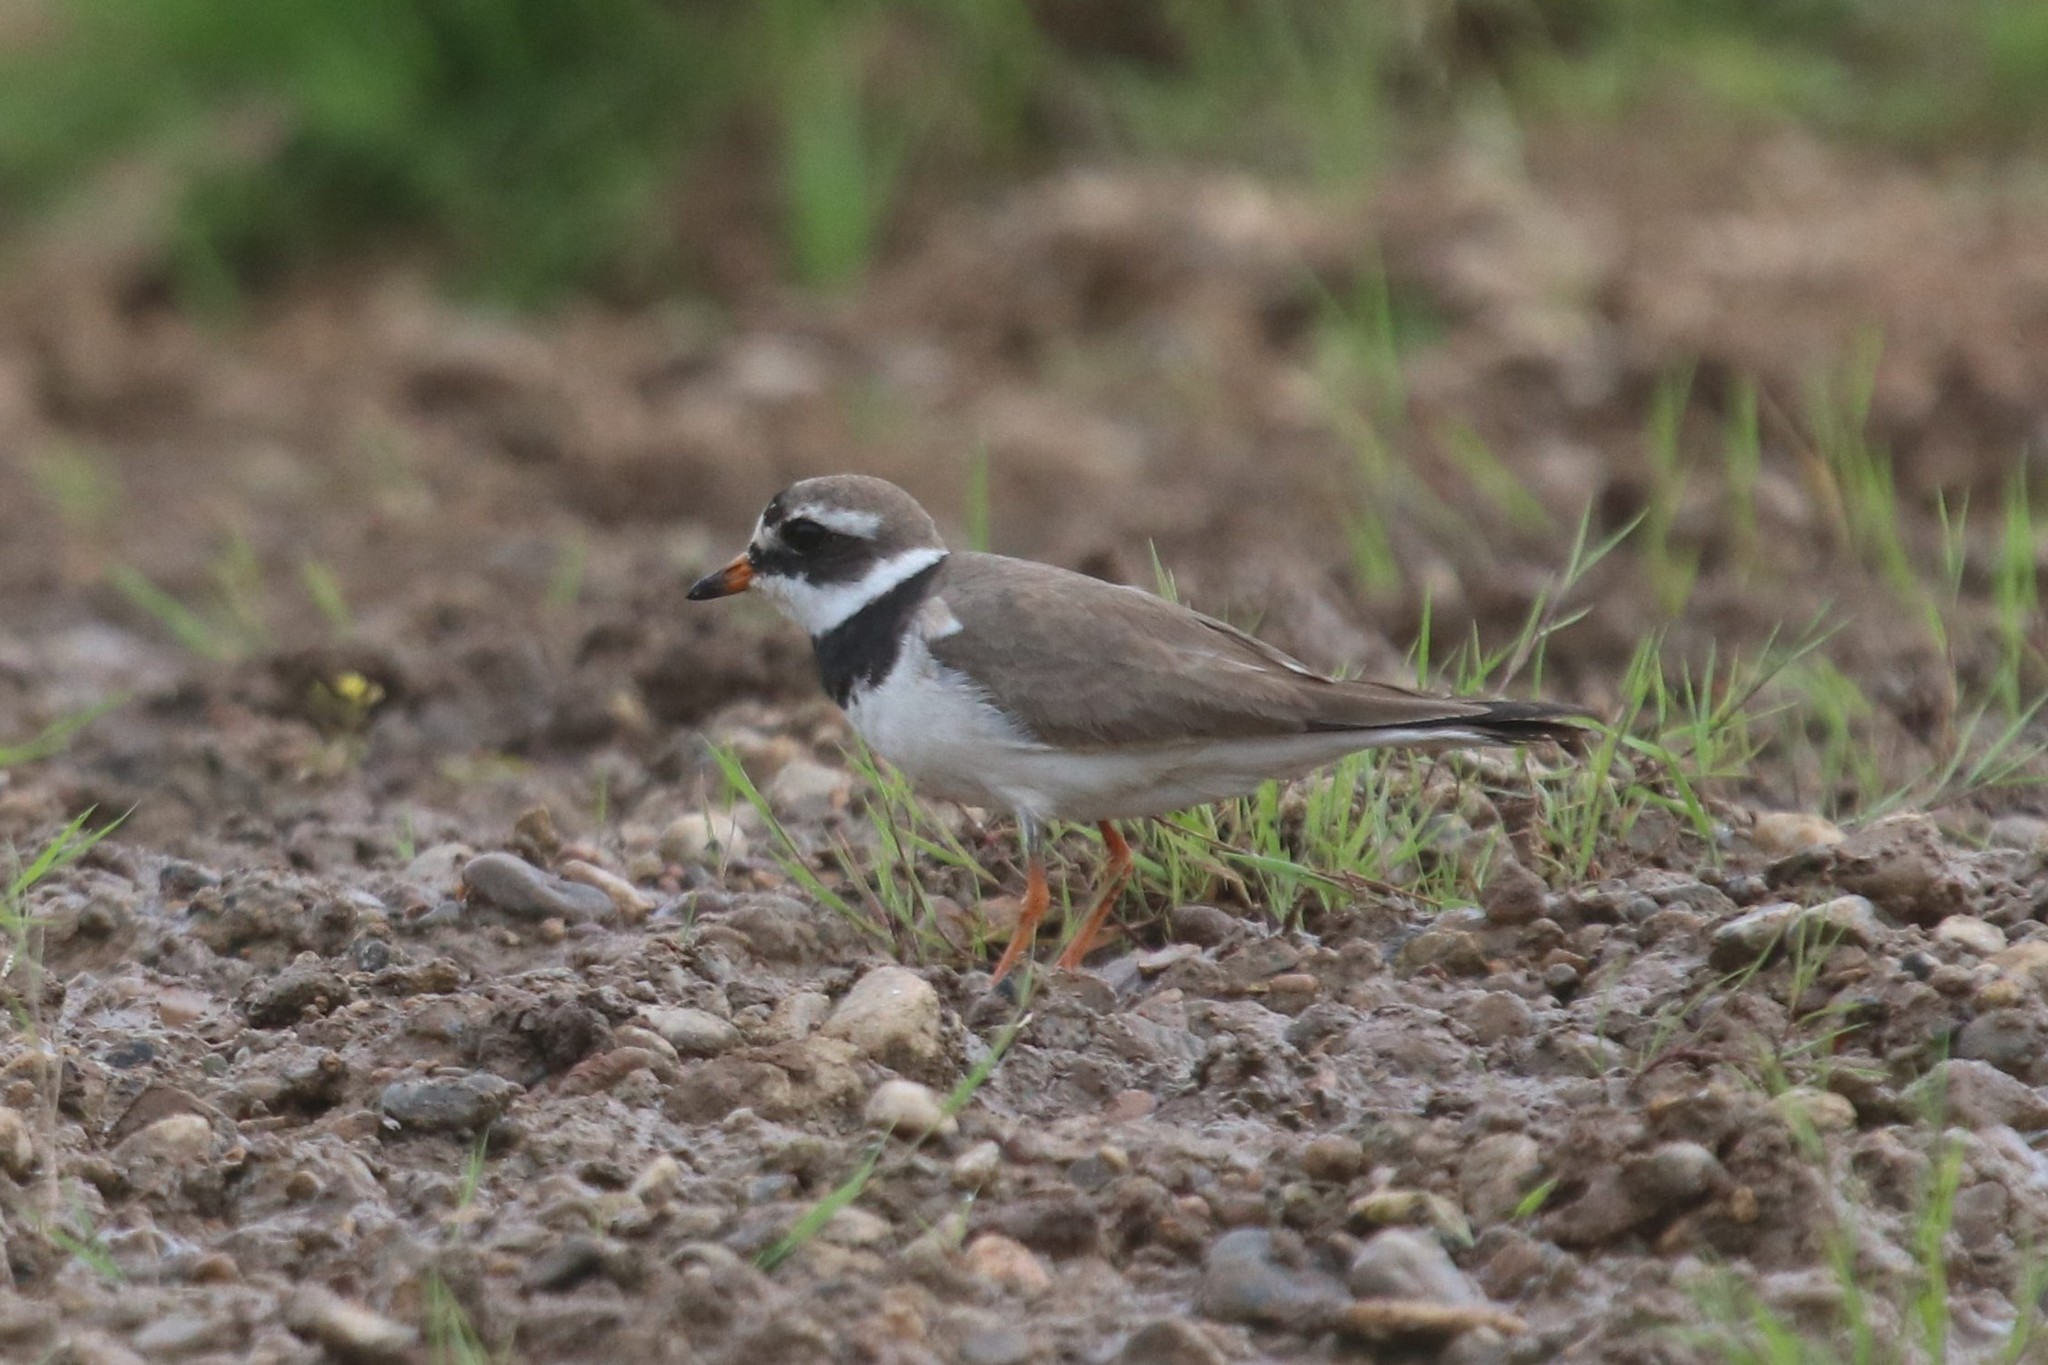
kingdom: Animalia
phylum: Chordata
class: Aves
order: Charadriiformes
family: Charadriidae
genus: Charadrius
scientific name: Charadrius hiaticula
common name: Common ringed plover
